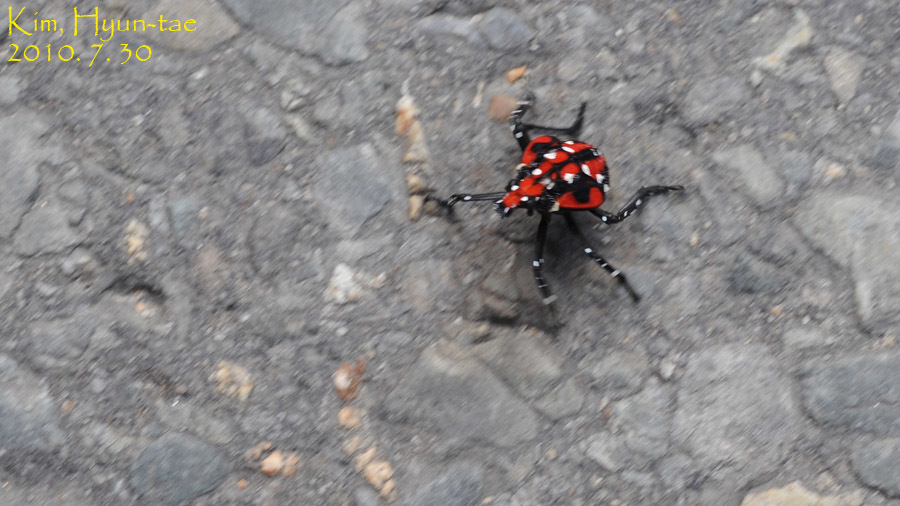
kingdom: Animalia
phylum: Arthropoda
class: Insecta
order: Hemiptera
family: Fulgoridae
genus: Lycorma
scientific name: Lycorma delicatula
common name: Spotted lanternfly
